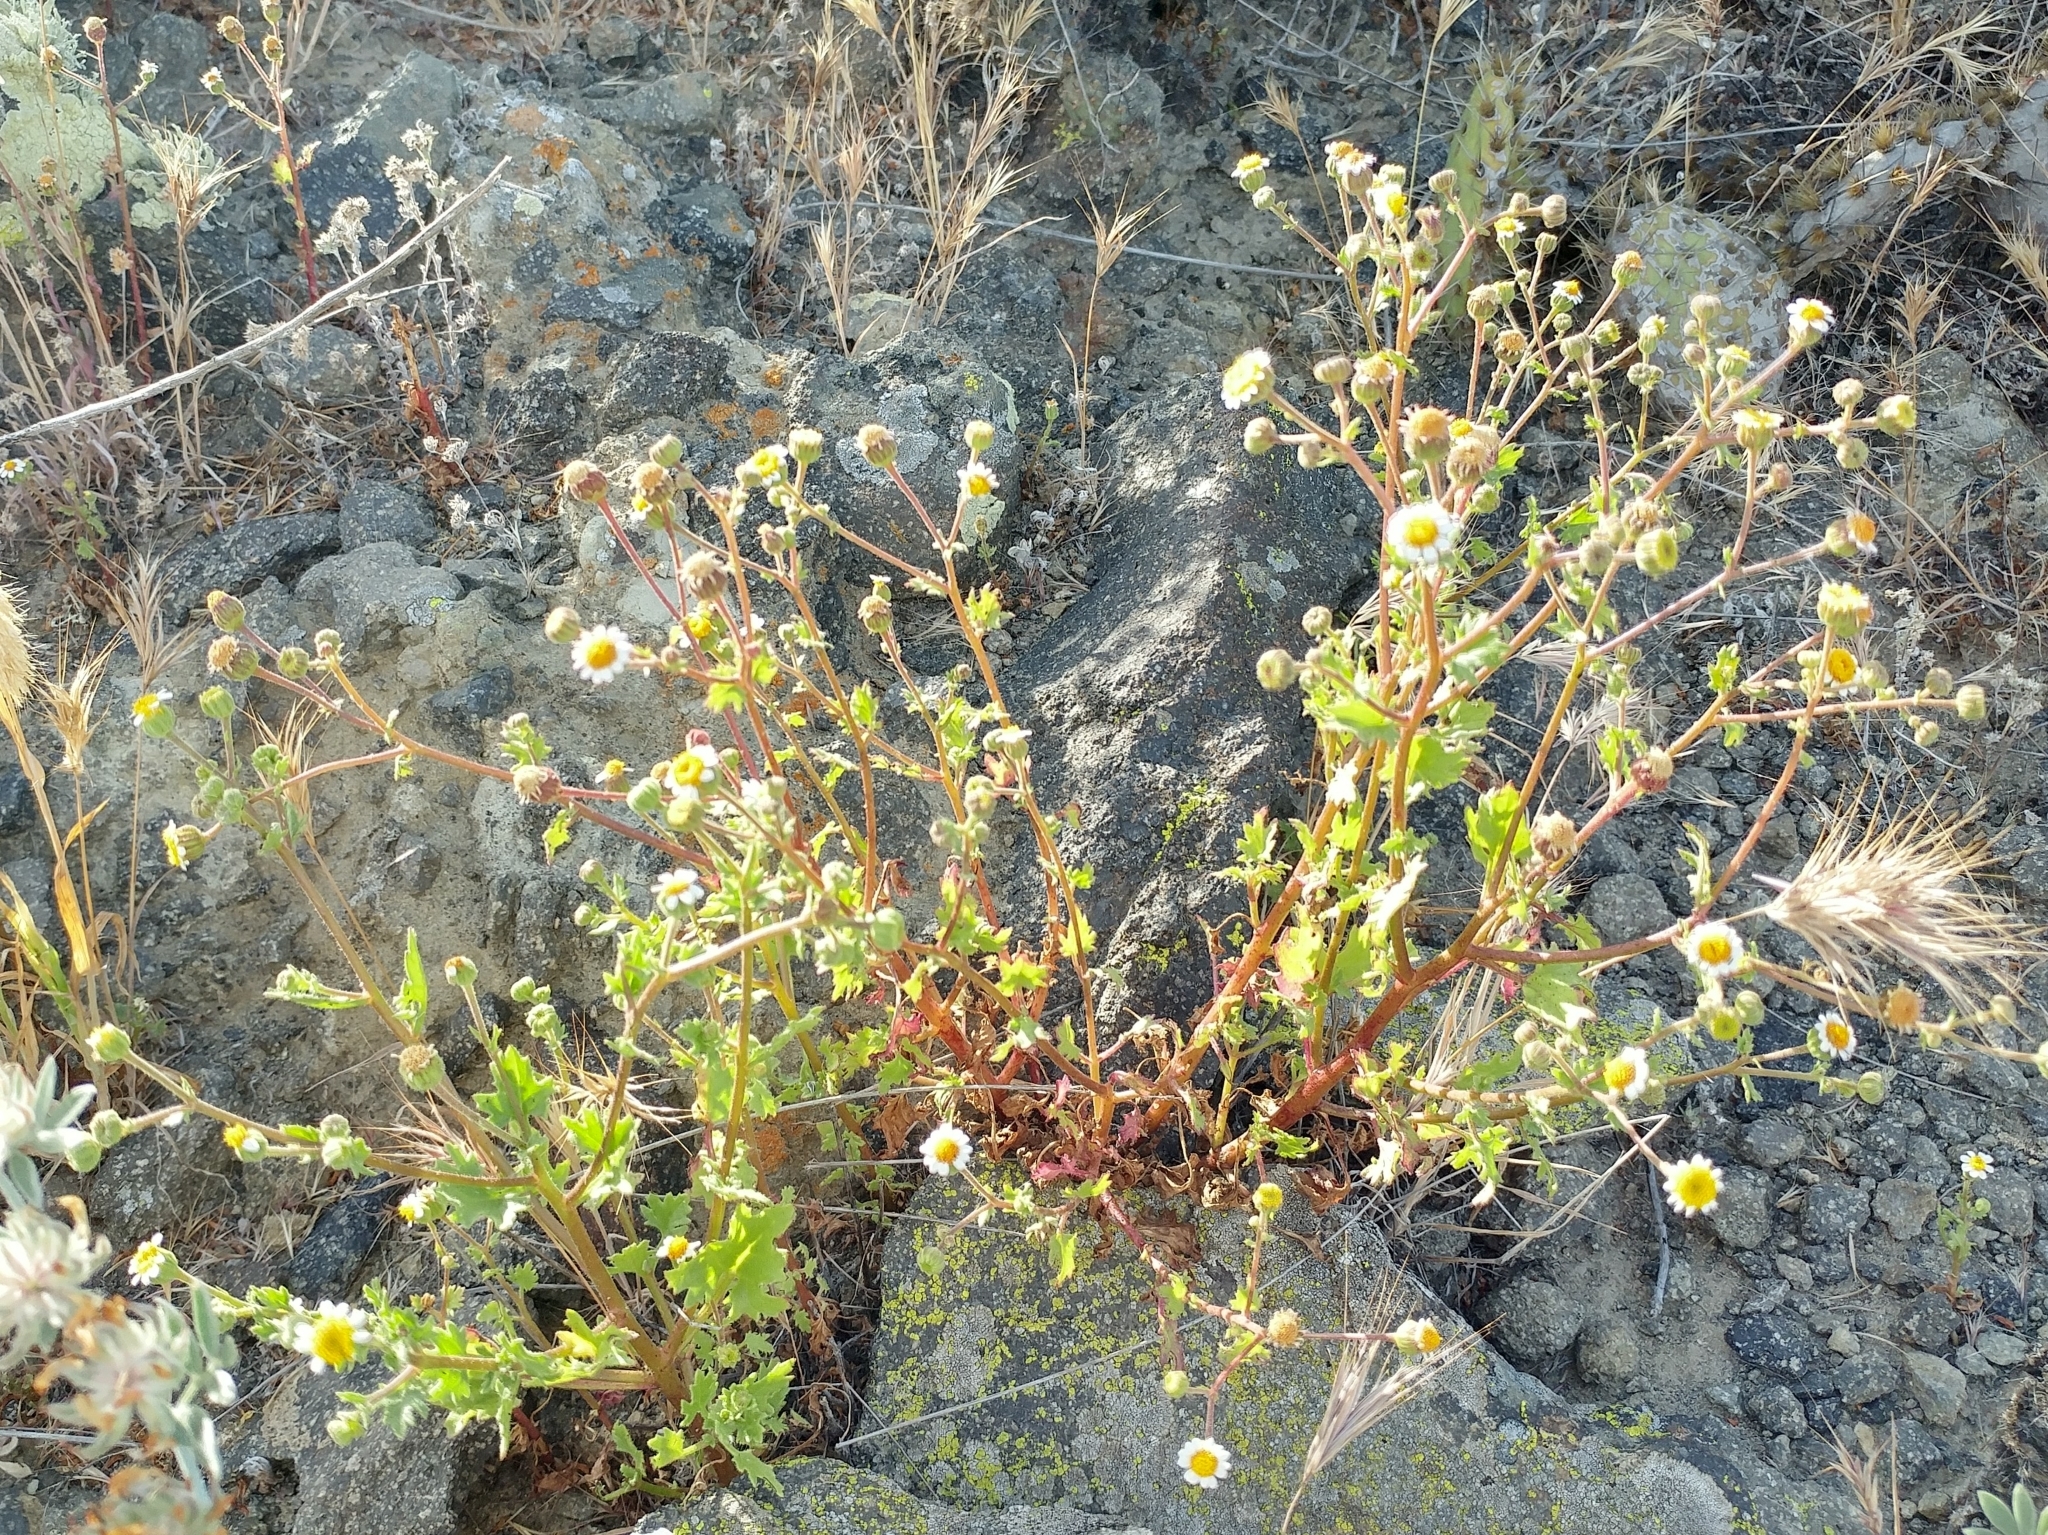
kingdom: Plantae
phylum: Tracheophyta
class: Magnoliopsida
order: Asterales
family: Asteraceae
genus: Laphamia
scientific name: Laphamia emoryi
